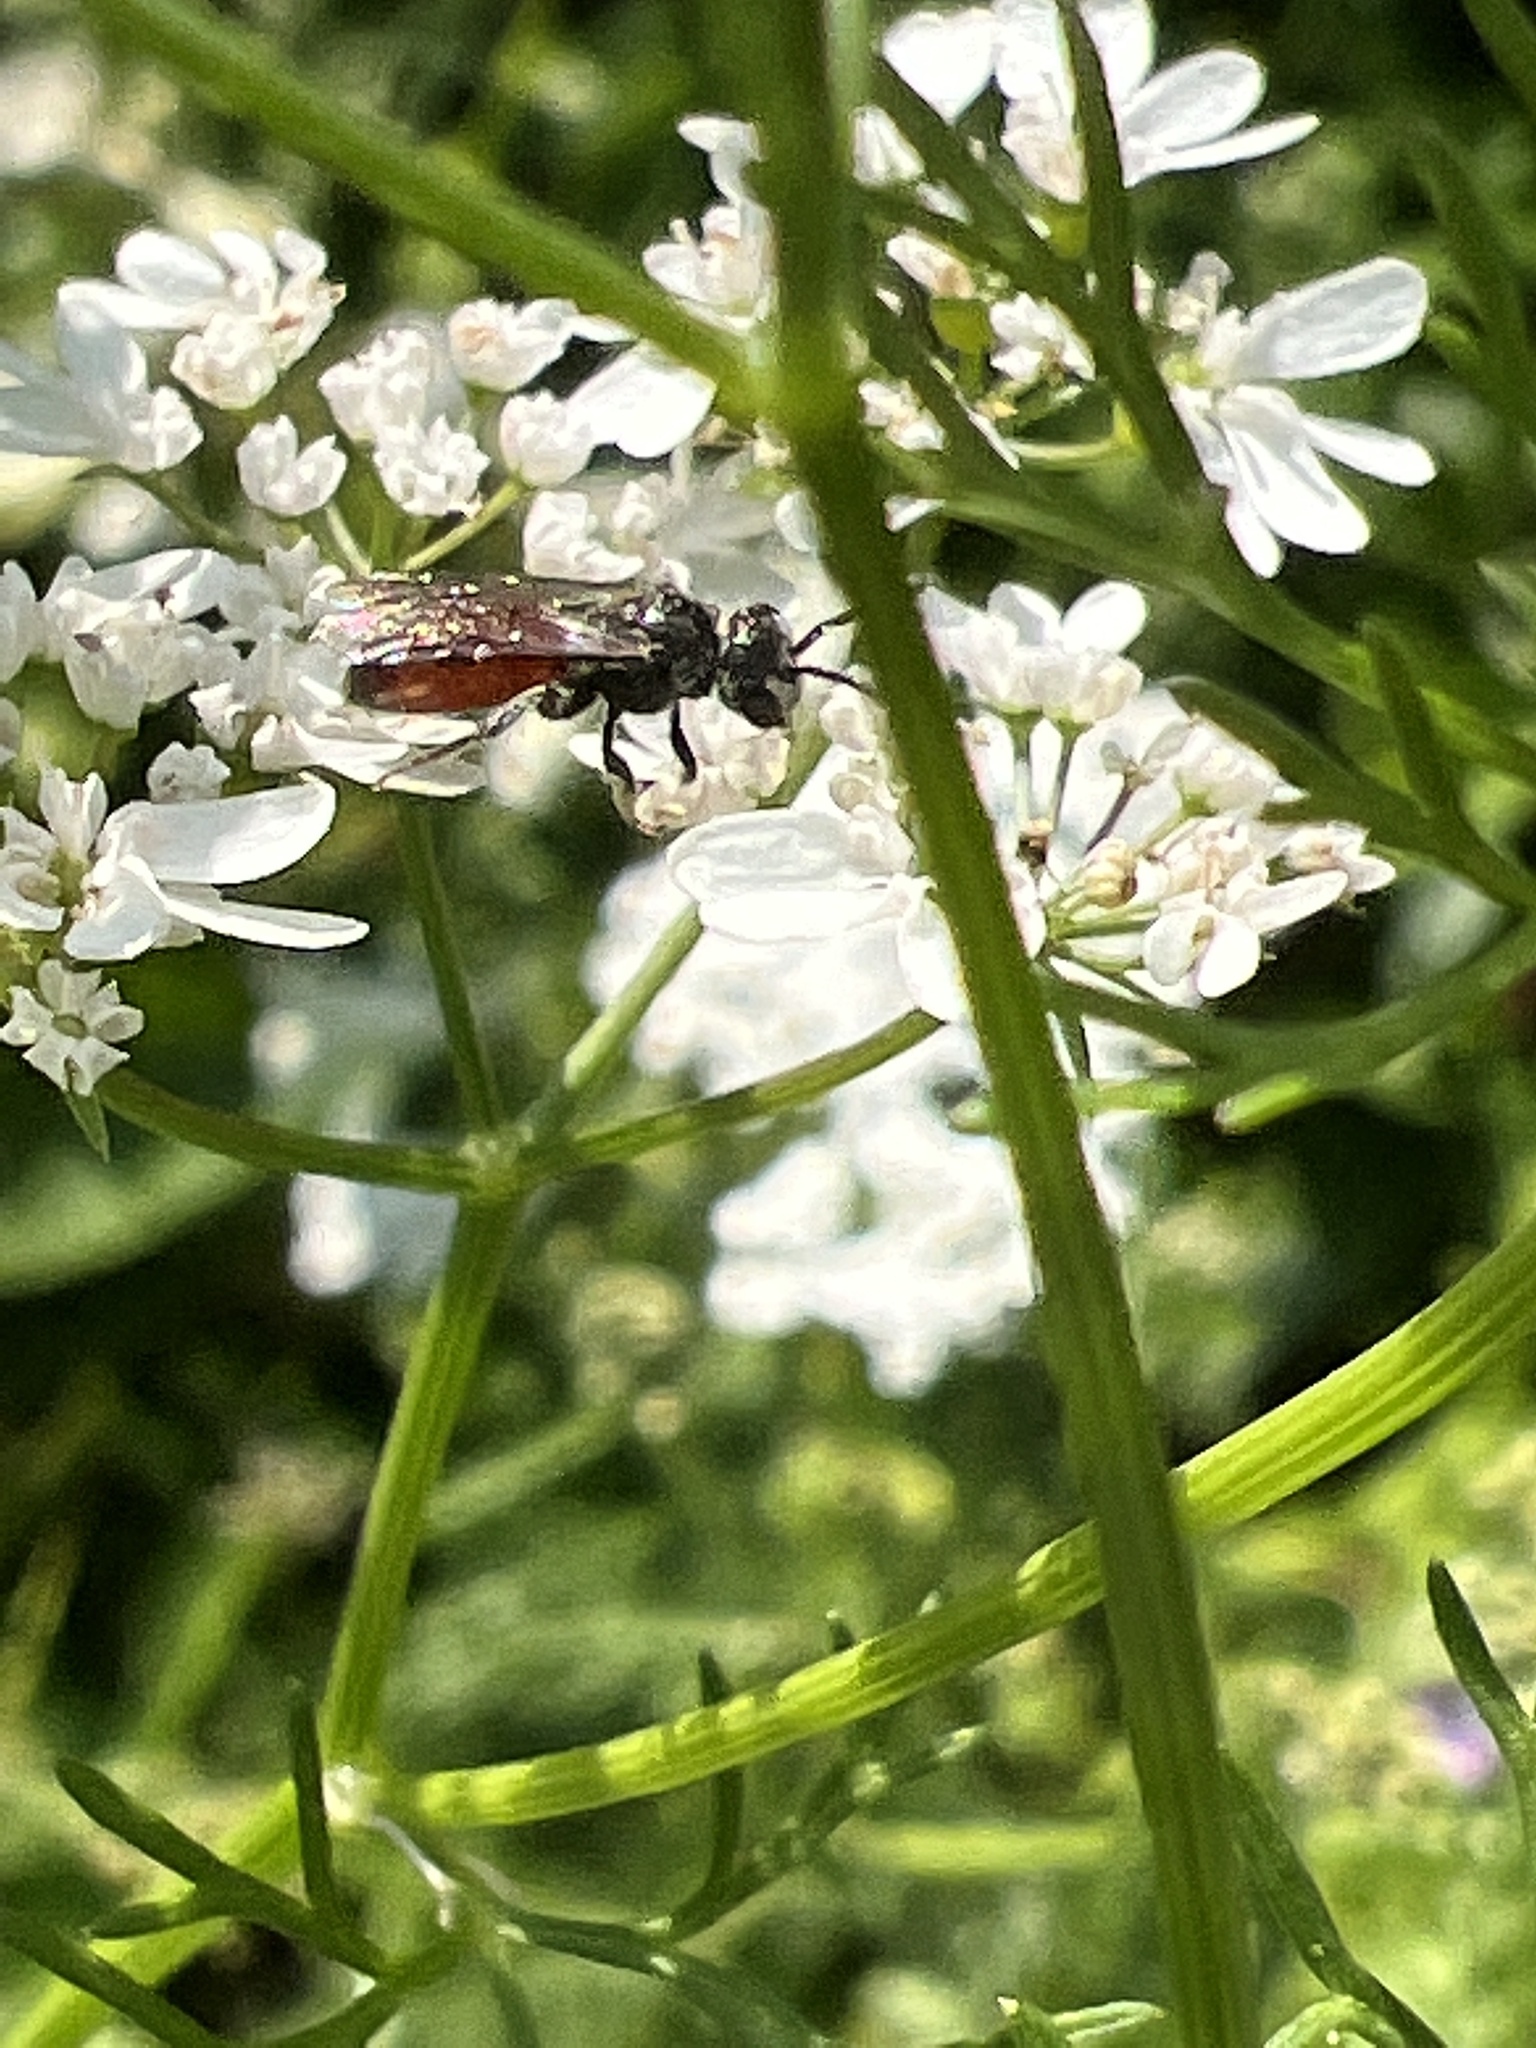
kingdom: Animalia
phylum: Arthropoda
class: Insecta
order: Hymenoptera
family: Halictidae
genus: Sphecodes
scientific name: Sphecodes
